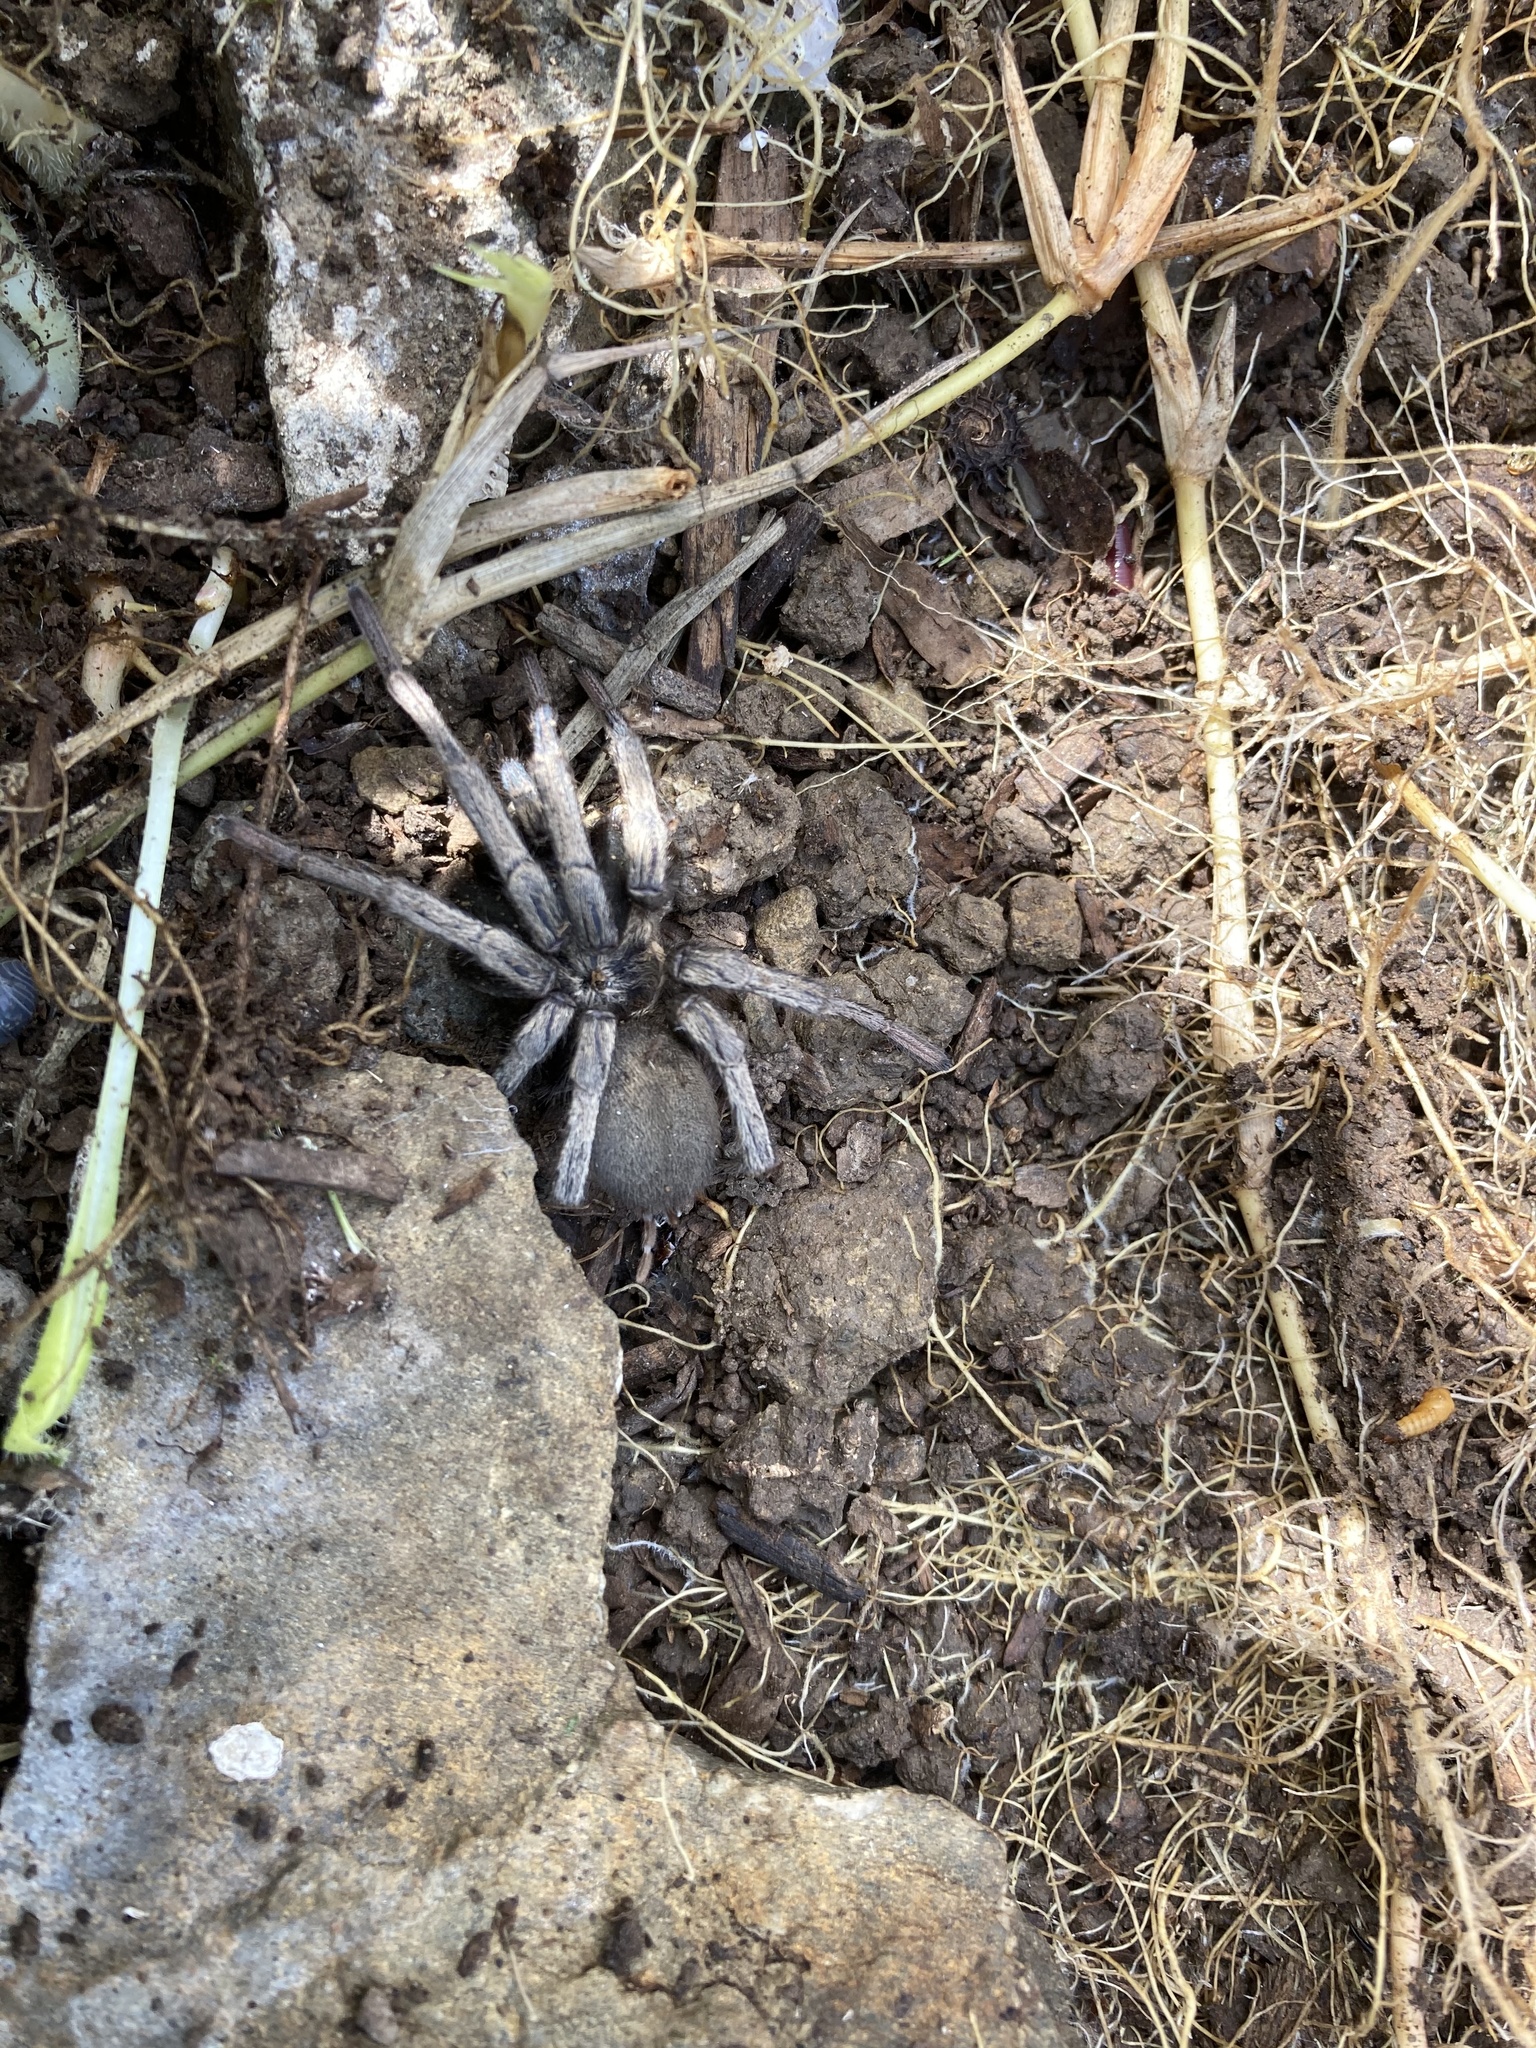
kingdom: Animalia
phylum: Arthropoda
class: Arachnida
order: Araneae
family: Nemesiidae
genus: Calisoga
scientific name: Calisoga longitarsis
